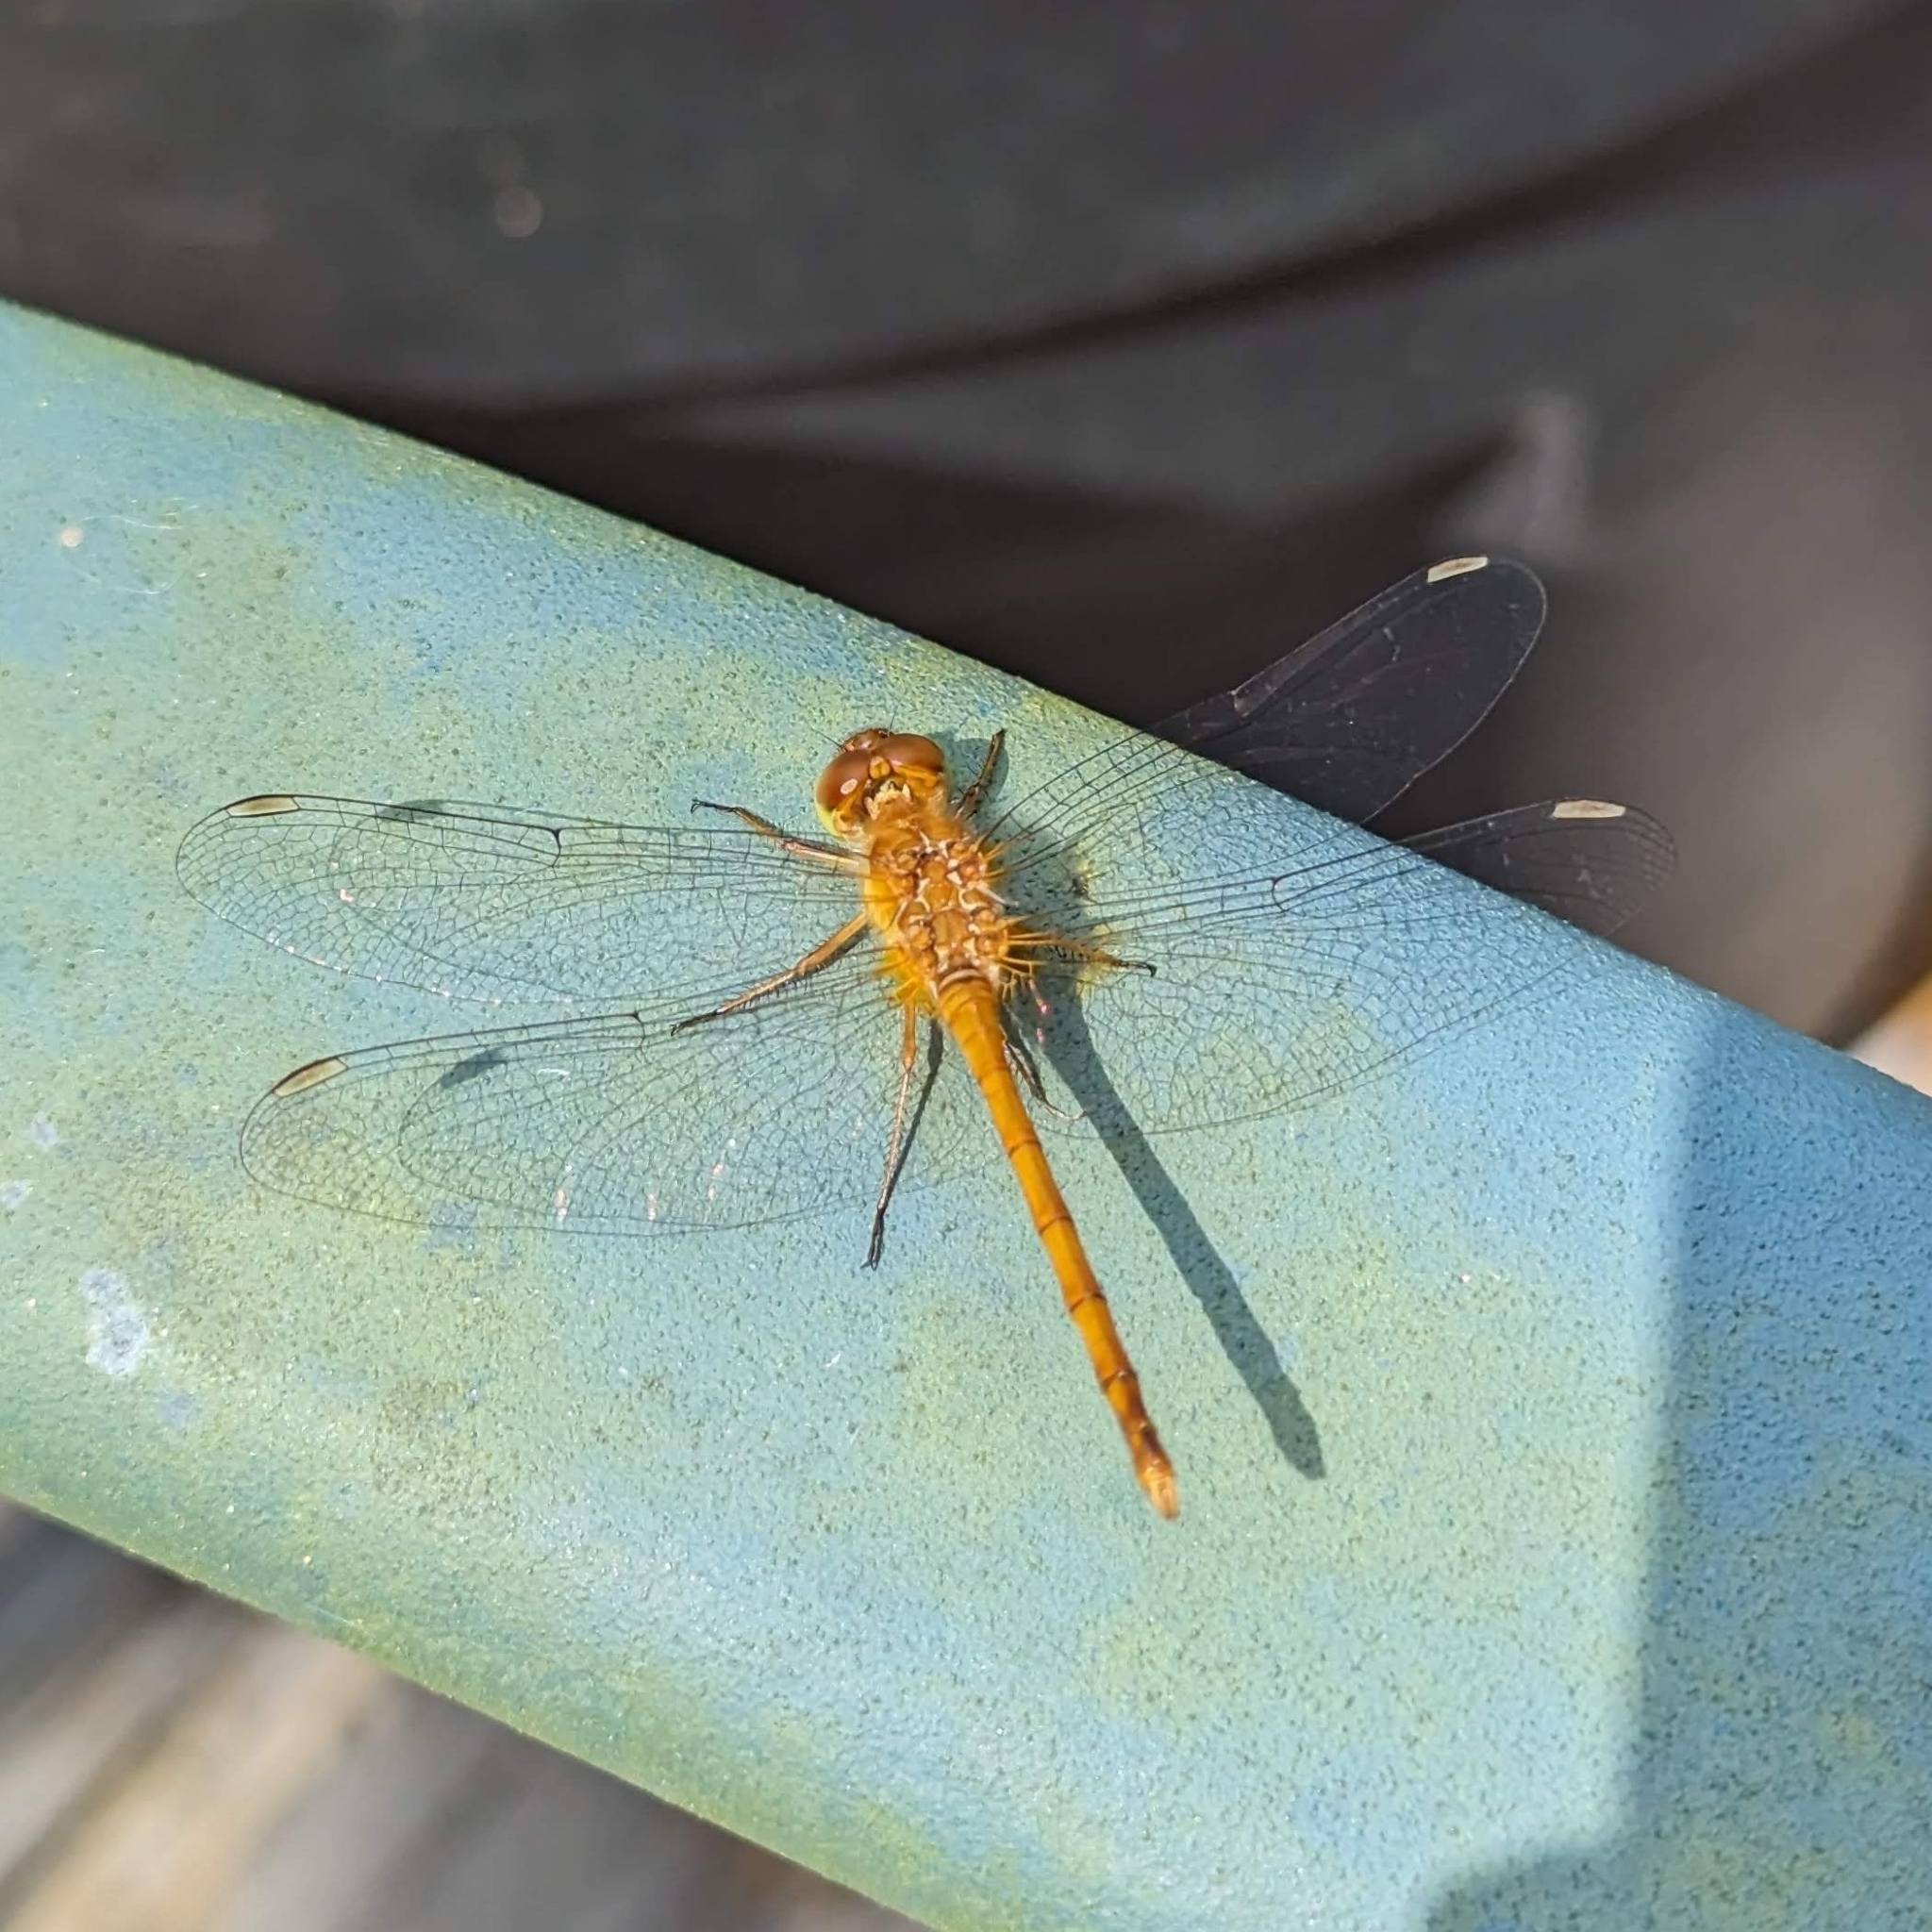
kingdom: Animalia
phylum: Arthropoda
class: Insecta
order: Odonata
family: Libellulidae
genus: Sympetrum
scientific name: Sympetrum vicinum
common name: Autumn meadowhawk
